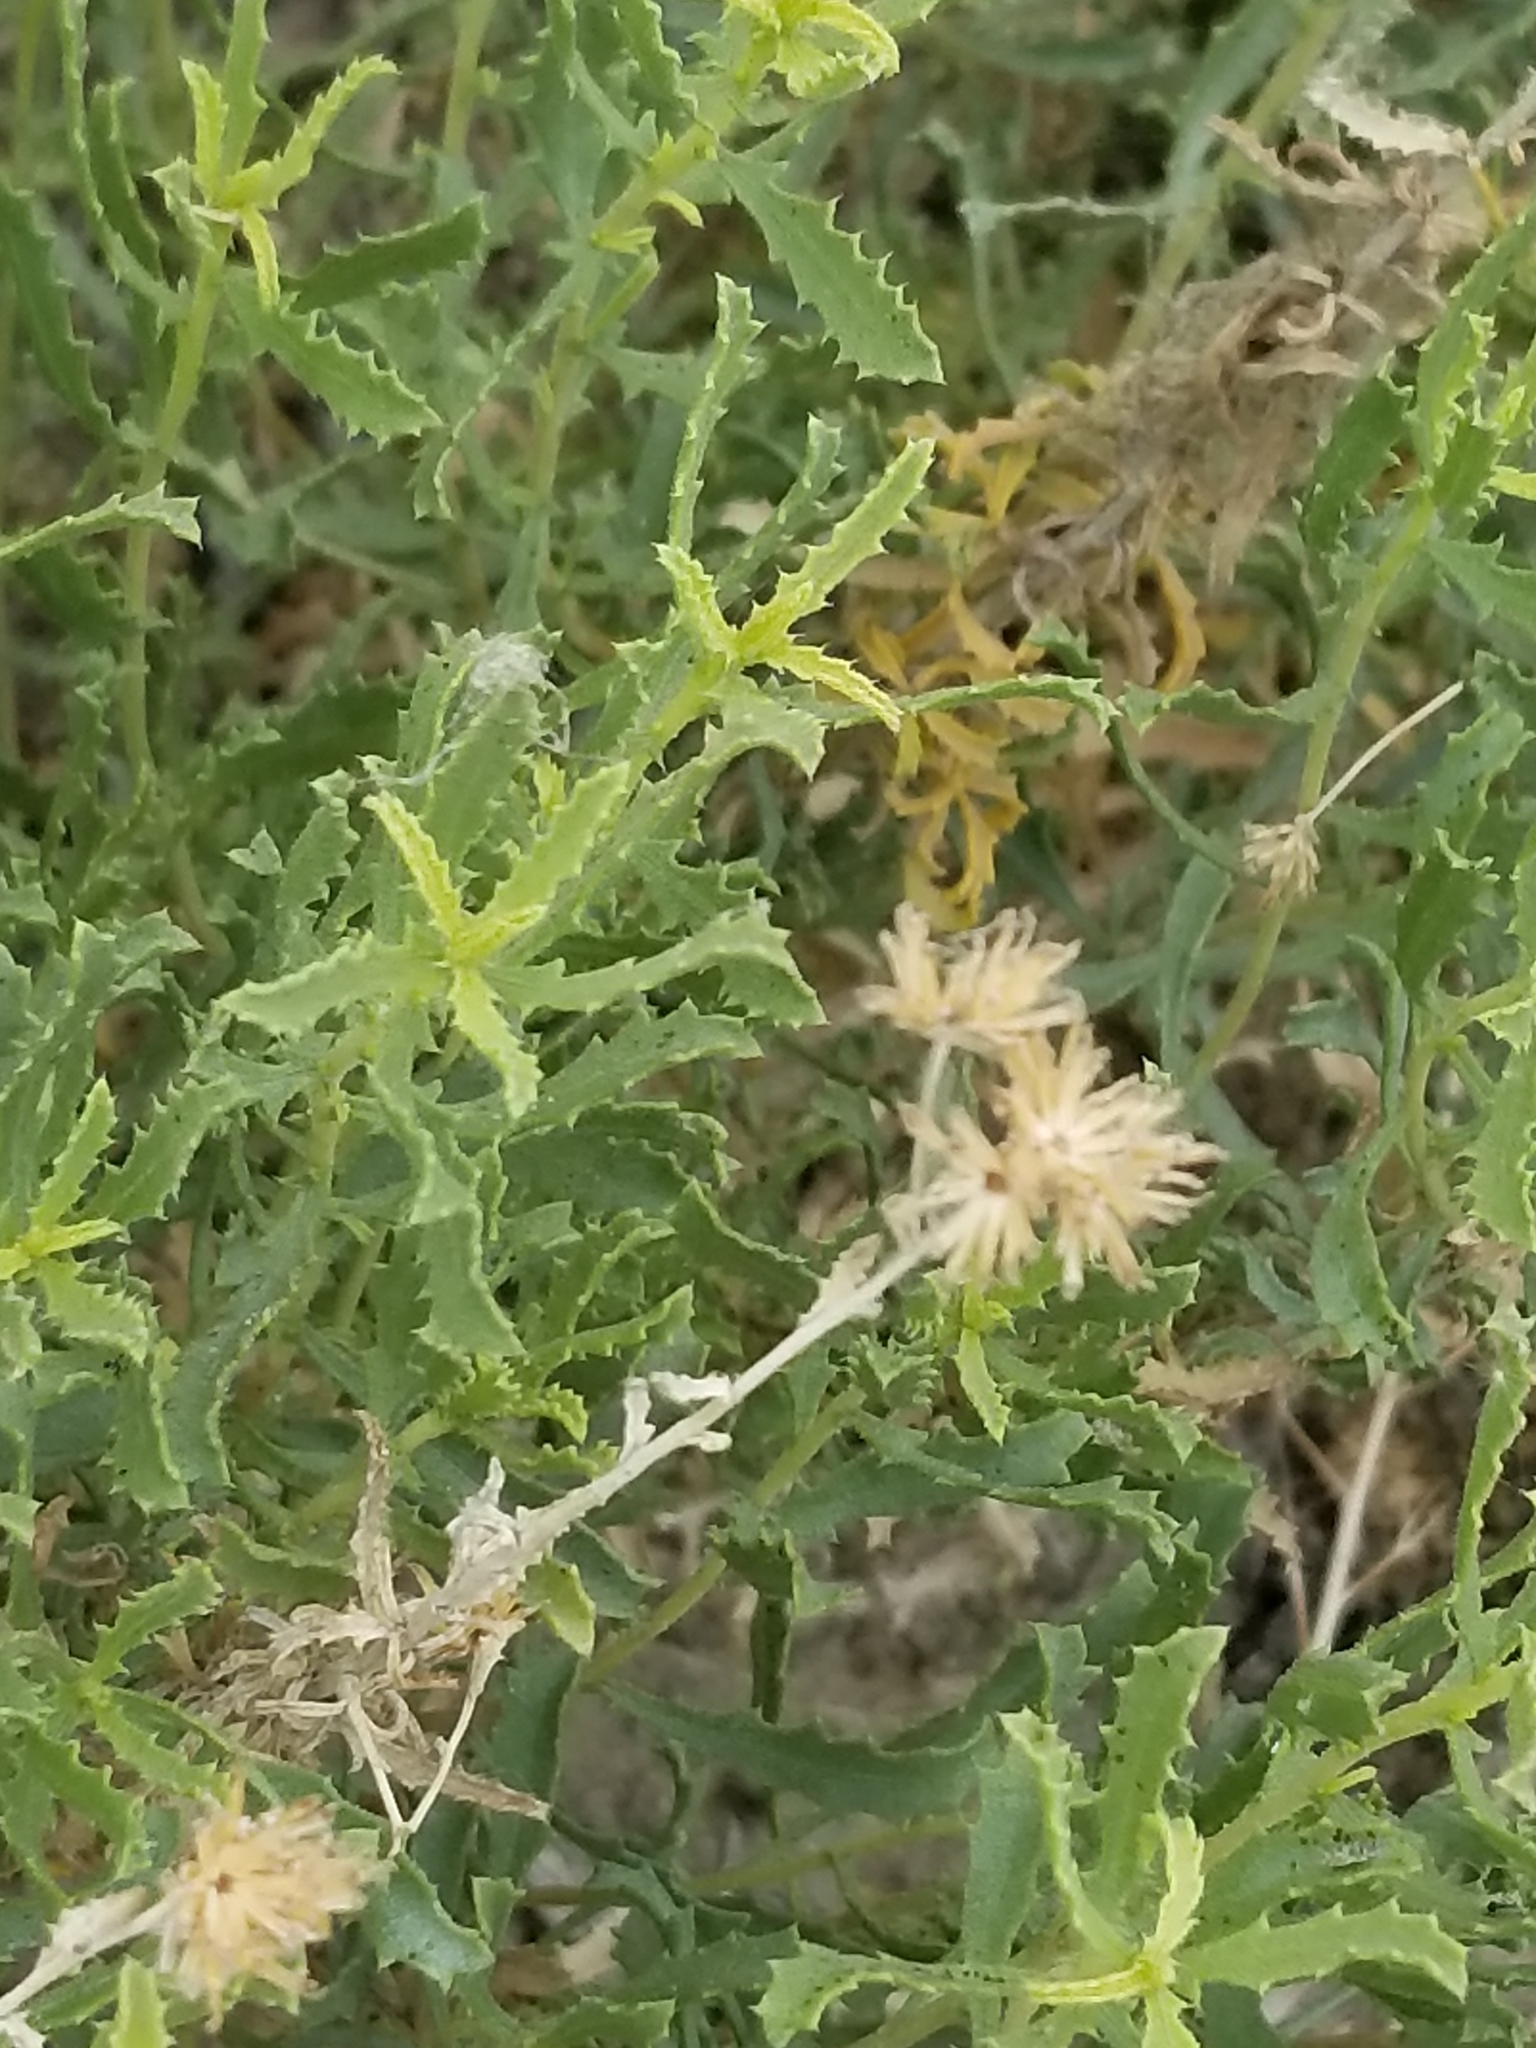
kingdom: Plantae
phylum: Tracheophyta
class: Magnoliopsida
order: Asterales
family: Asteraceae
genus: Isocoma
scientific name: Isocoma acradenia
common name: Alkali jimmyweed
